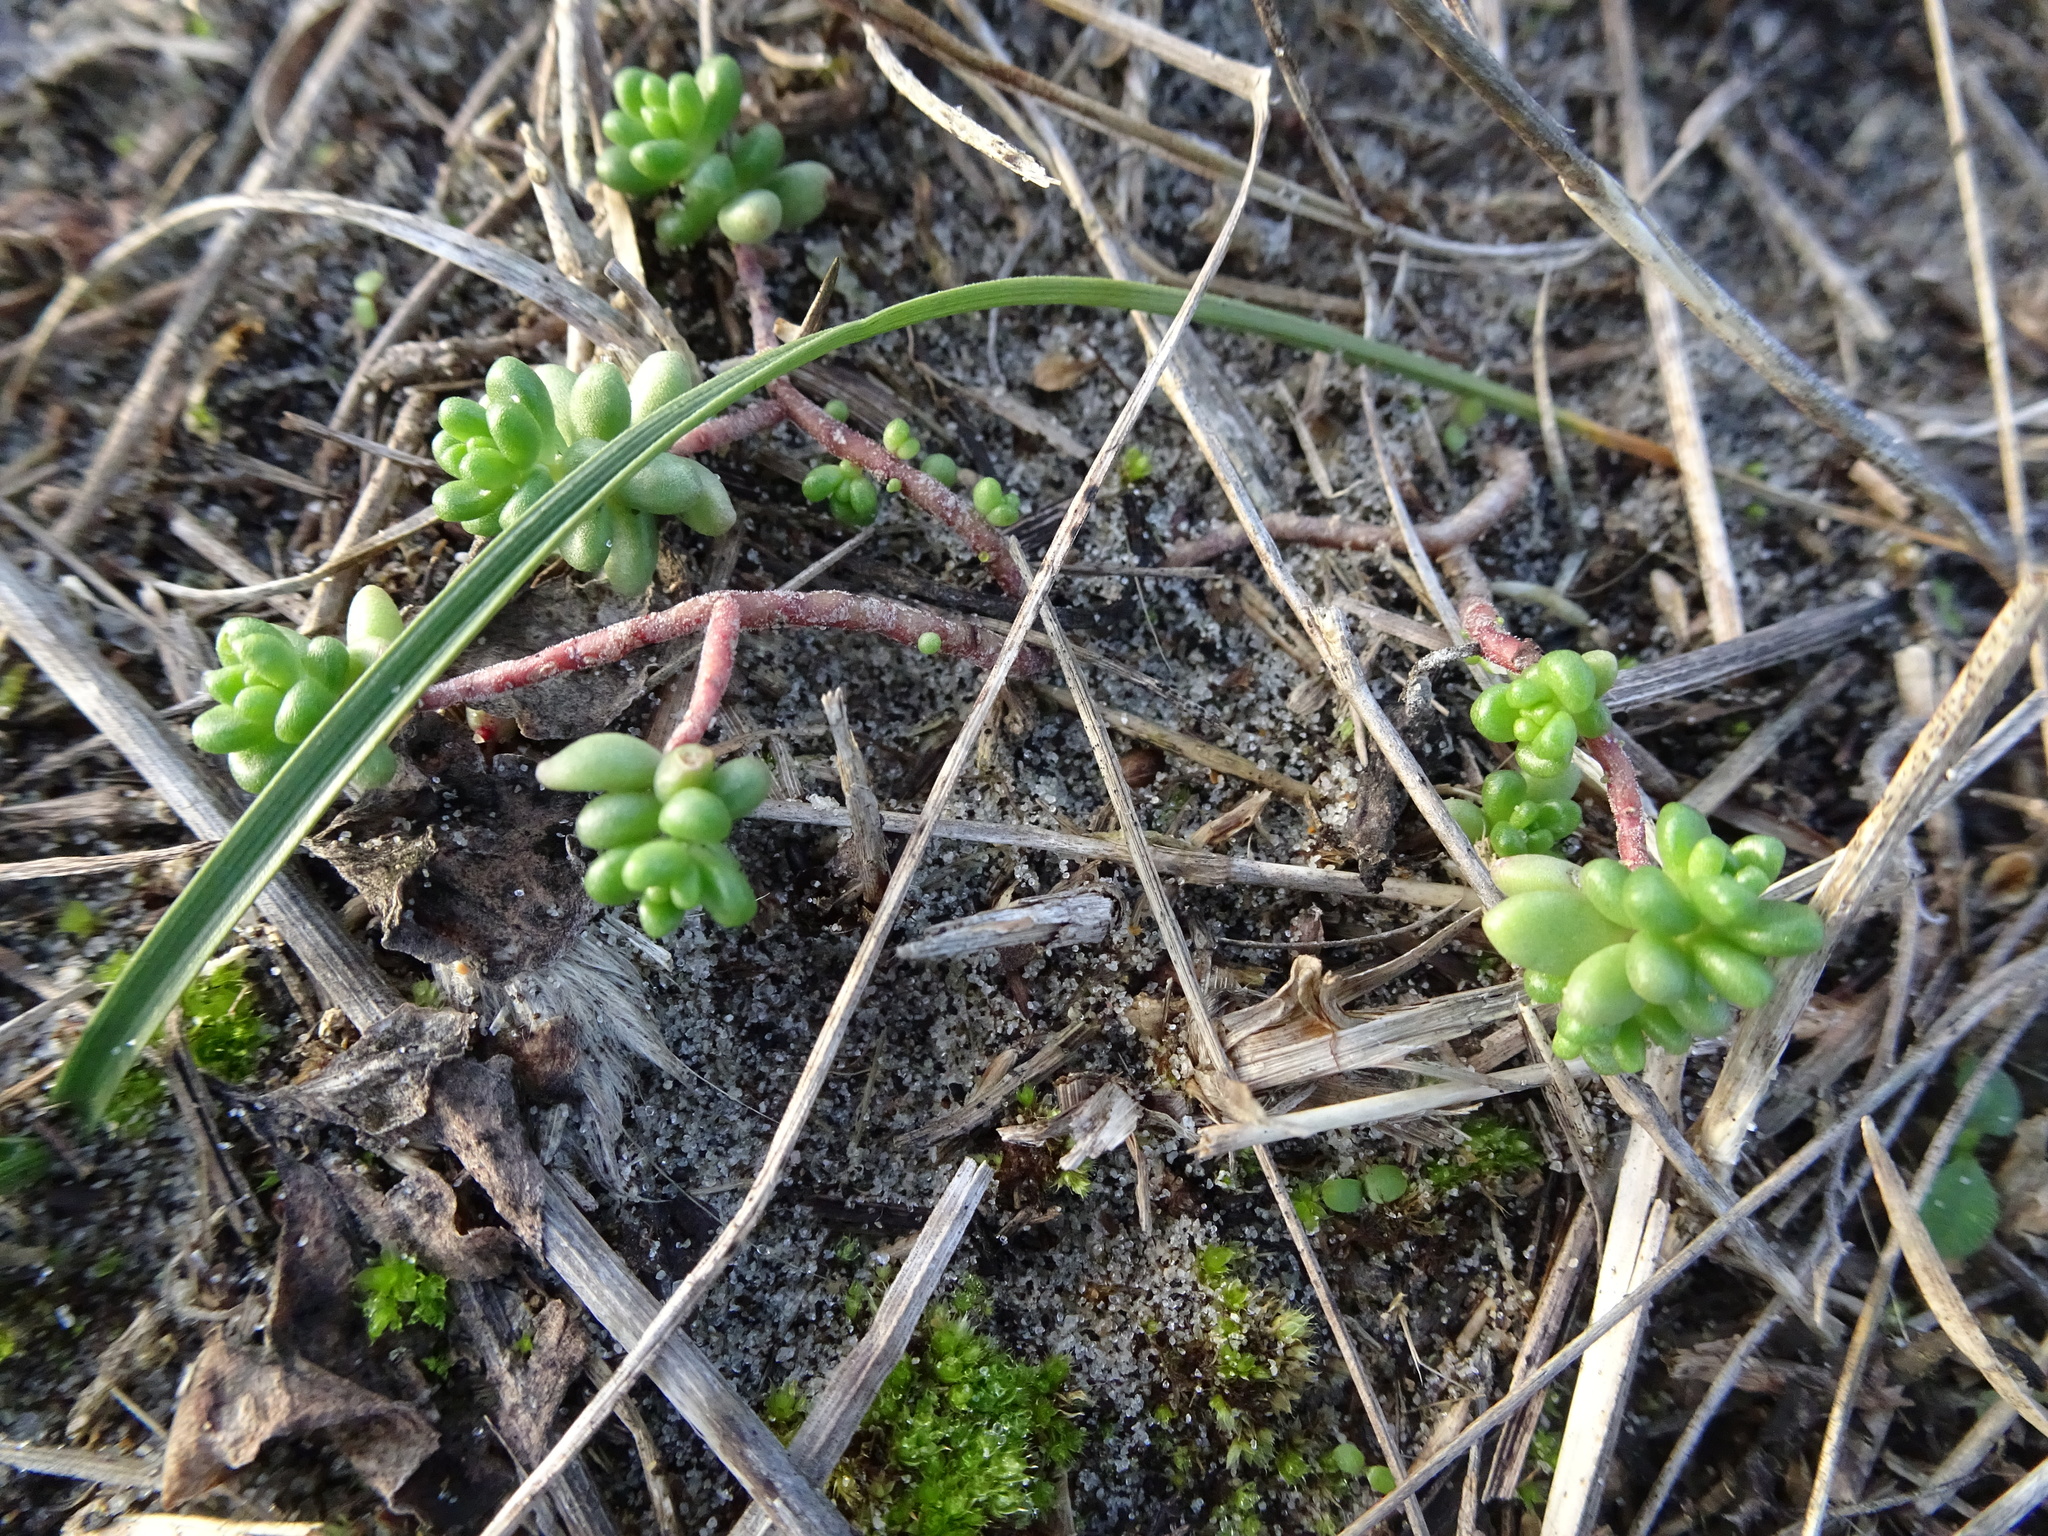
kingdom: Plantae
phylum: Tracheophyta
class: Magnoliopsida
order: Saxifragales
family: Crassulaceae
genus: Sedum
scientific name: Sedum album
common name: White stonecrop
